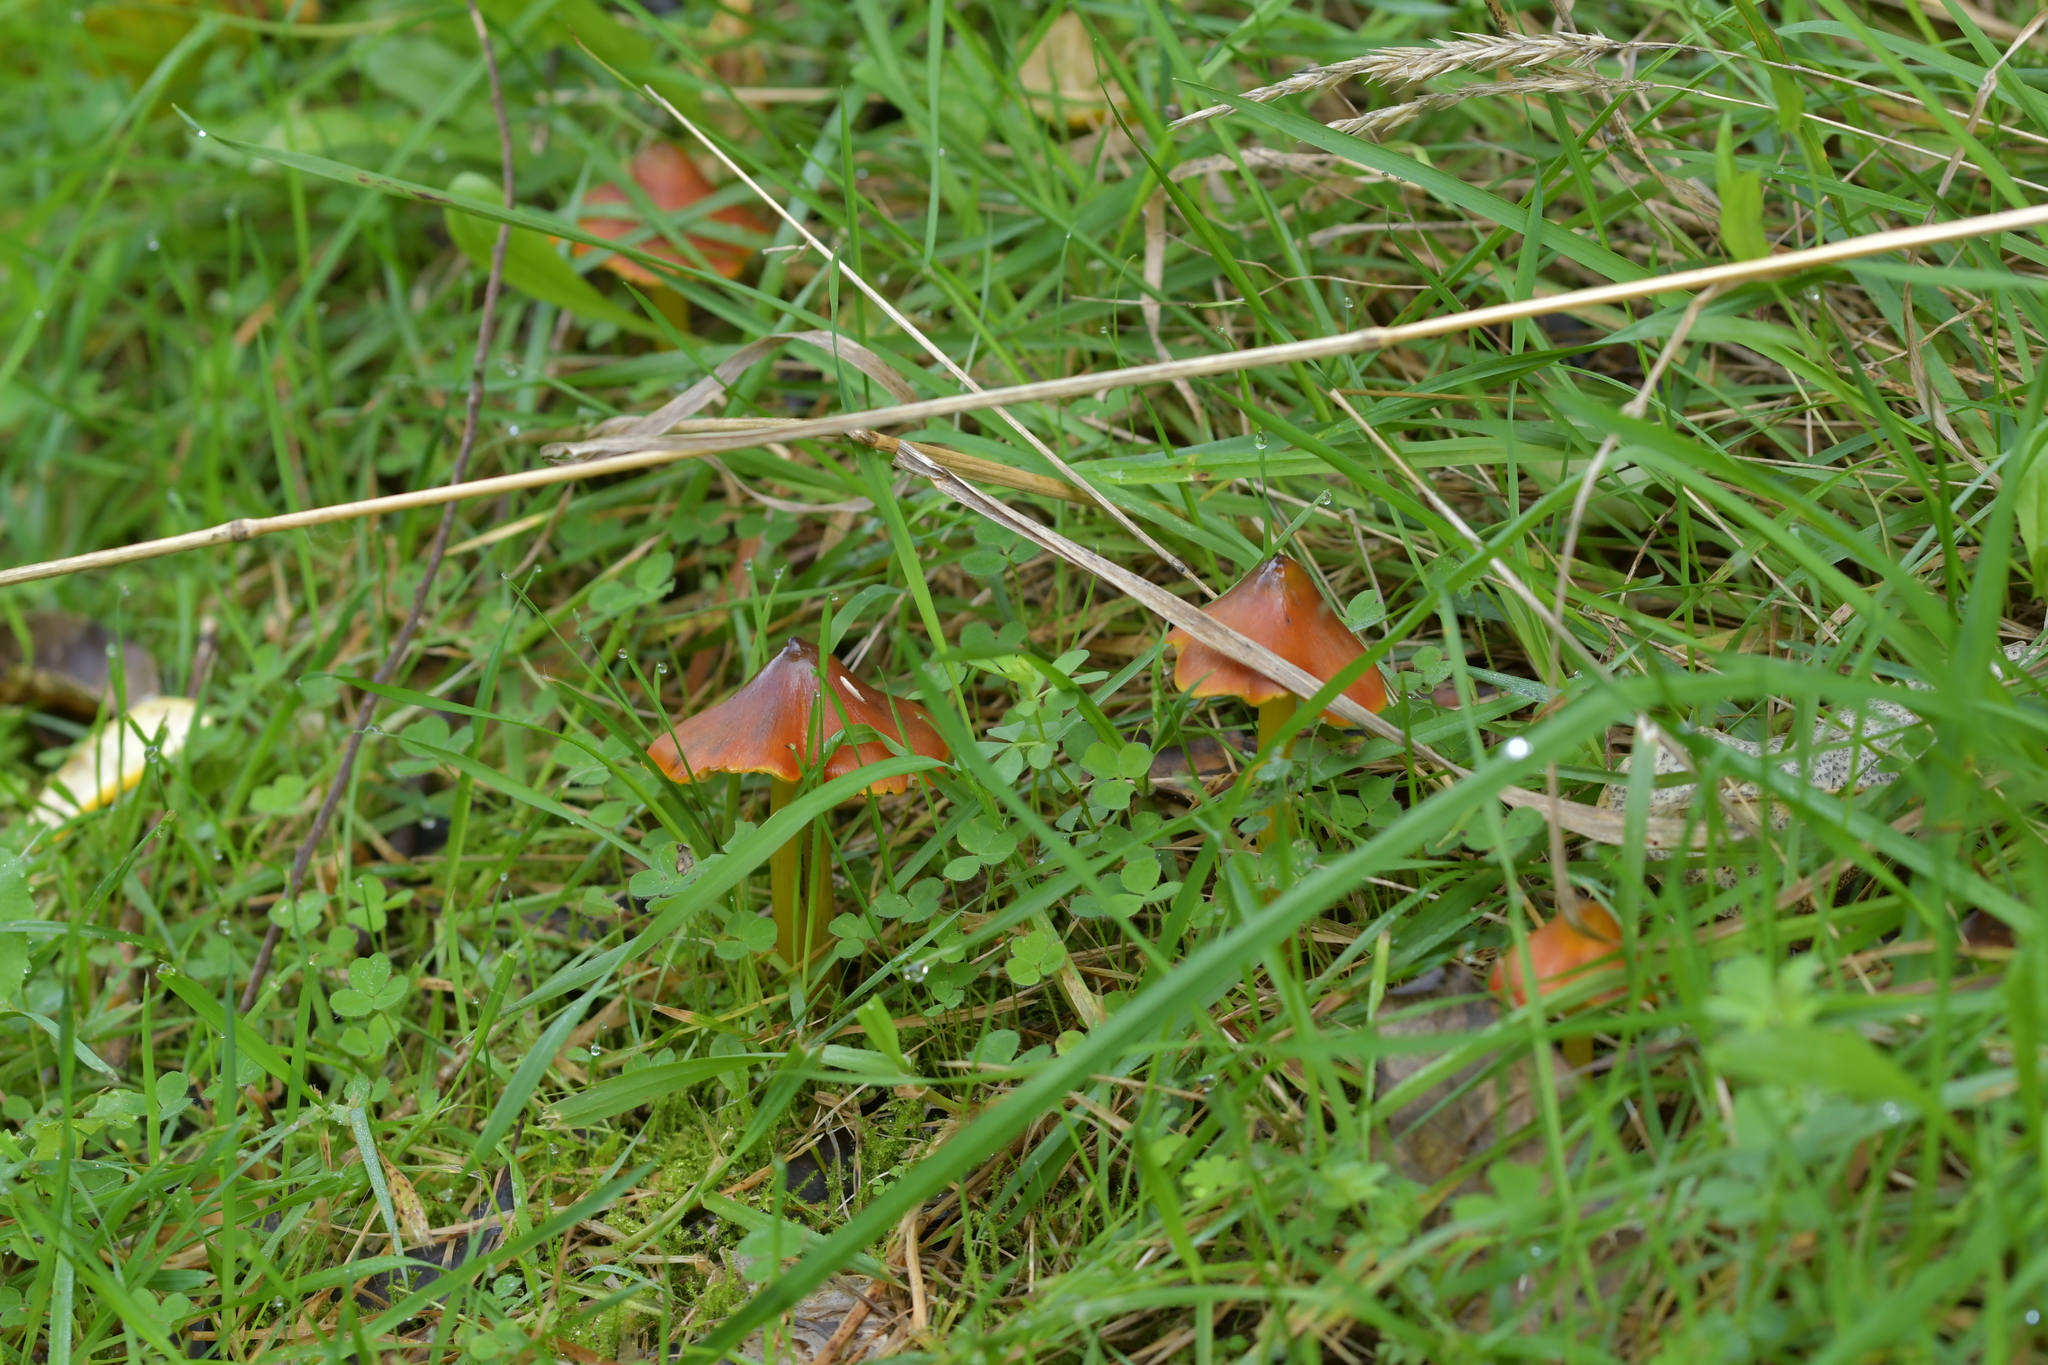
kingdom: Fungi
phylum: Basidiomycota
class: Agaricomycetes
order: Agaricales
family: Hygrophoraceae
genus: Hygrocybe
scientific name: Hygrocybe conica
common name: Blackening wax-cap
